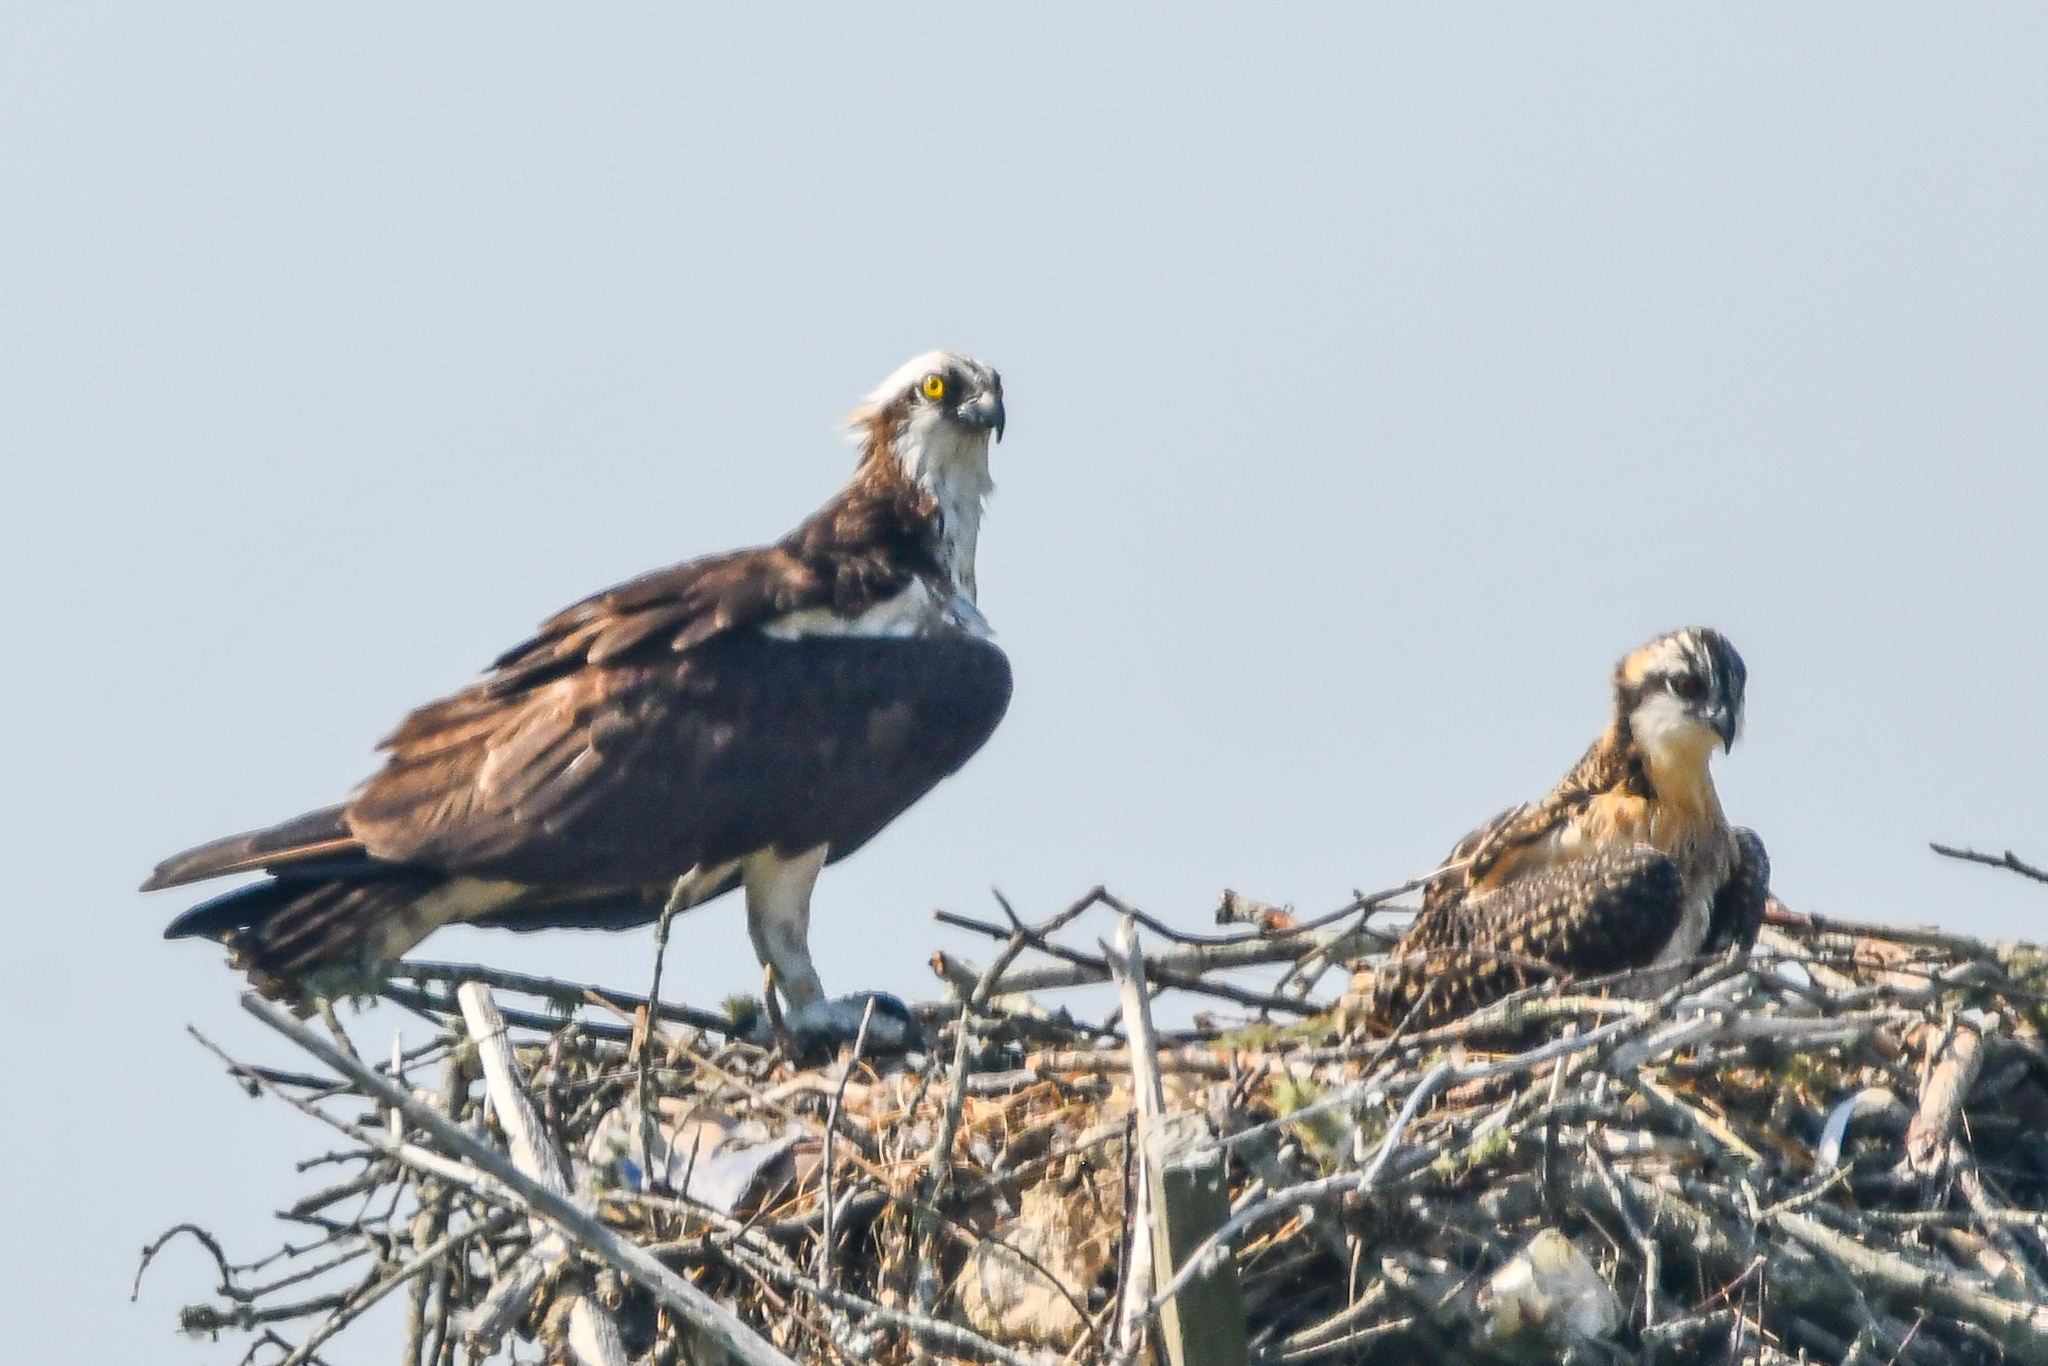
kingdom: Animalia
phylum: Chordata
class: Aves
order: Accipitriformes
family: Pandionidae
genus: Pandion
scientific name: Pandion haliaetus
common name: Osprey
